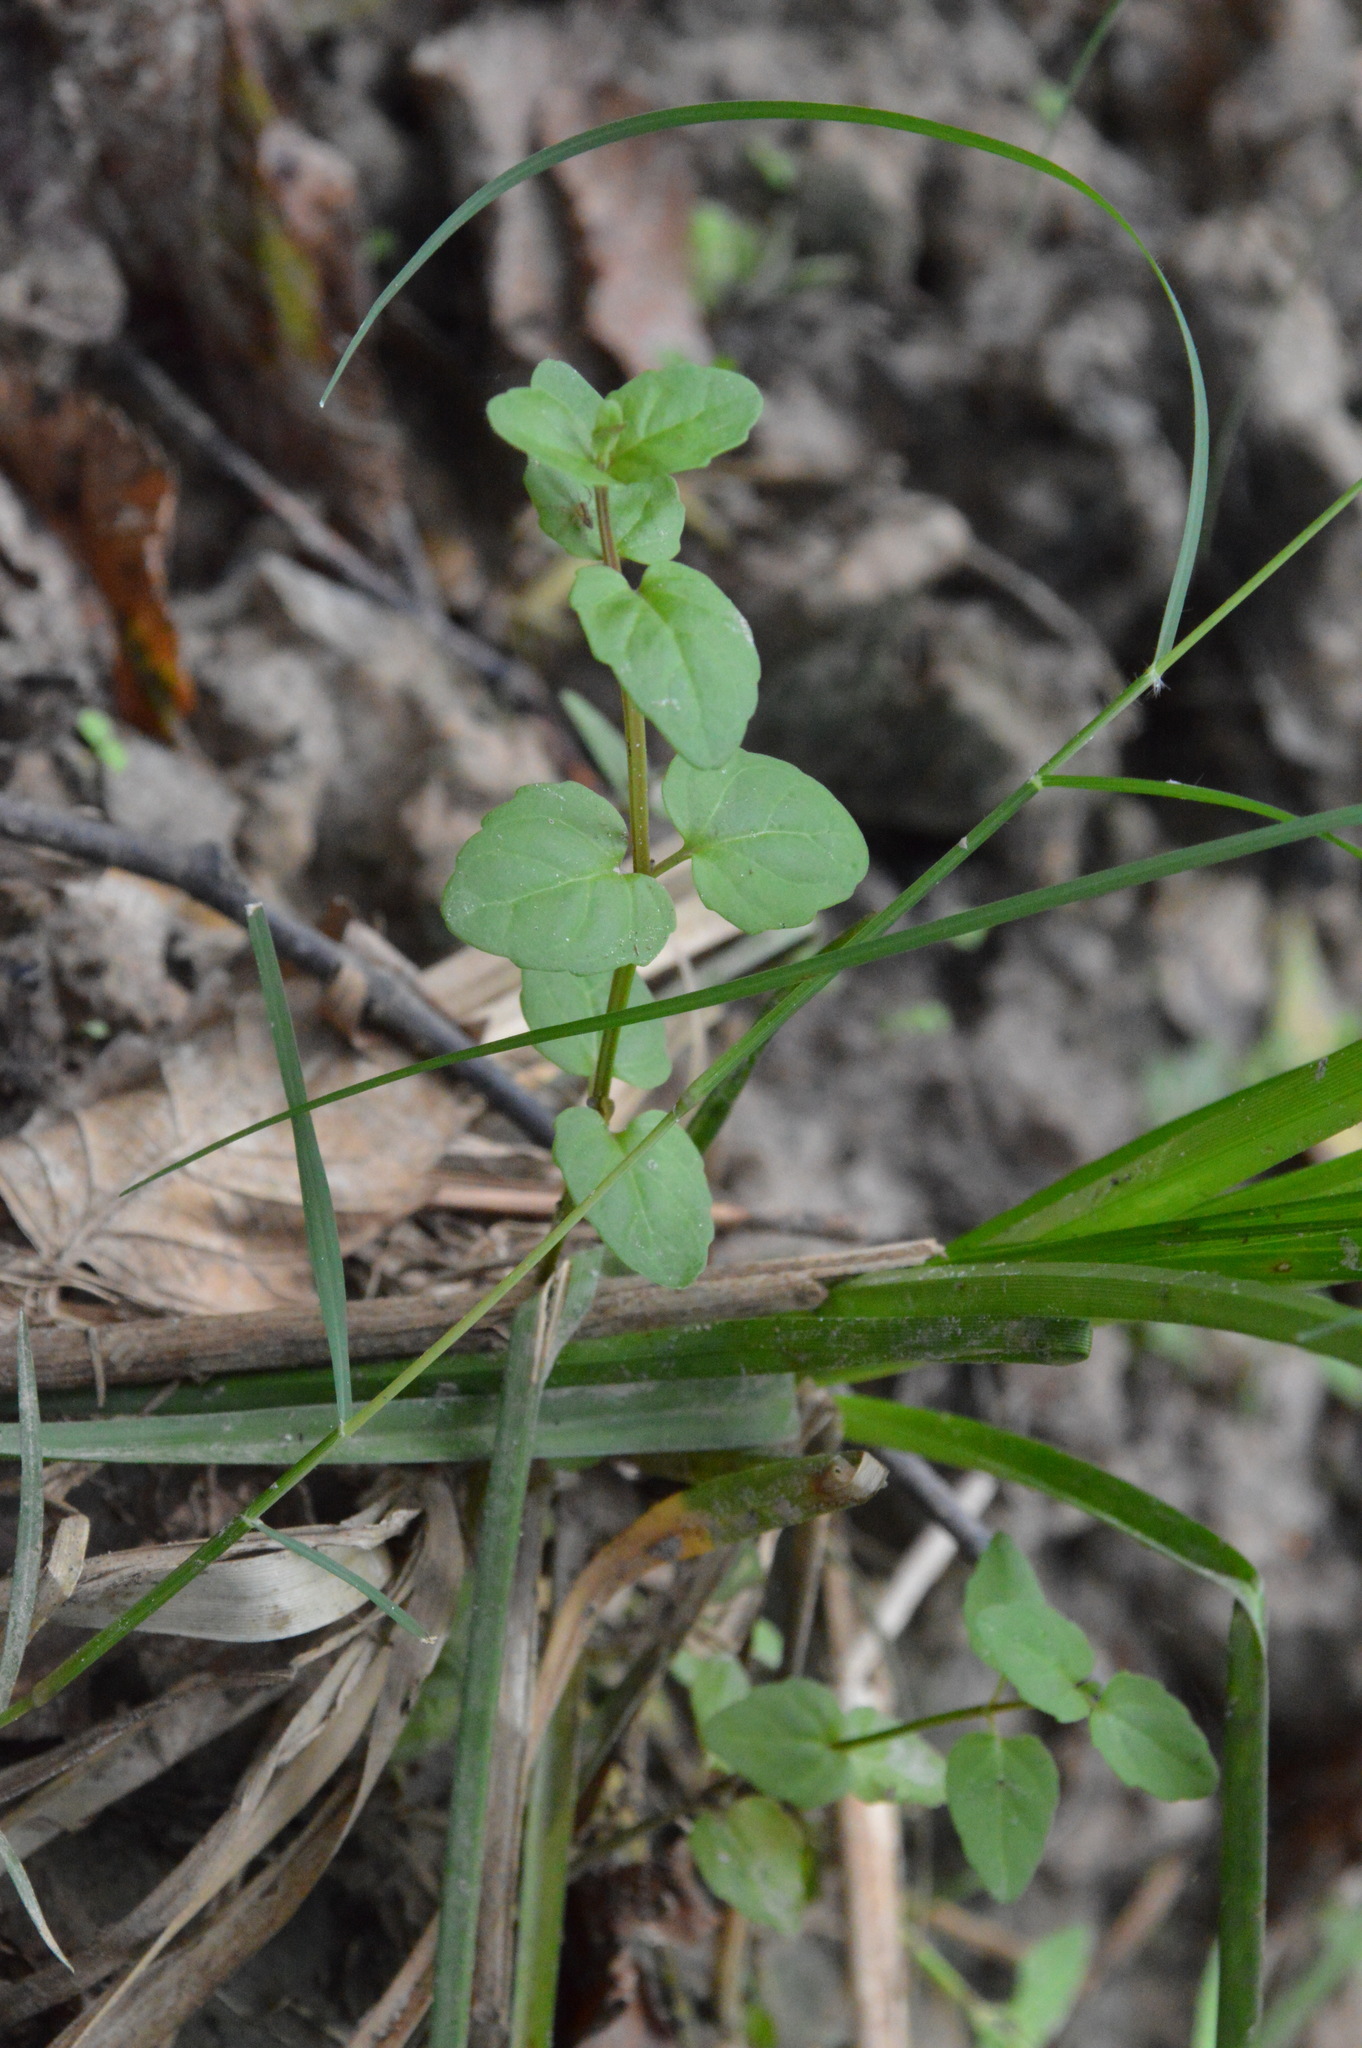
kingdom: Plantae
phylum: Tracheophyta
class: Magnoliopsida
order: Lamiales
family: Lamiaceae
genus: Clinopodium
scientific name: Clinopodium brownei
